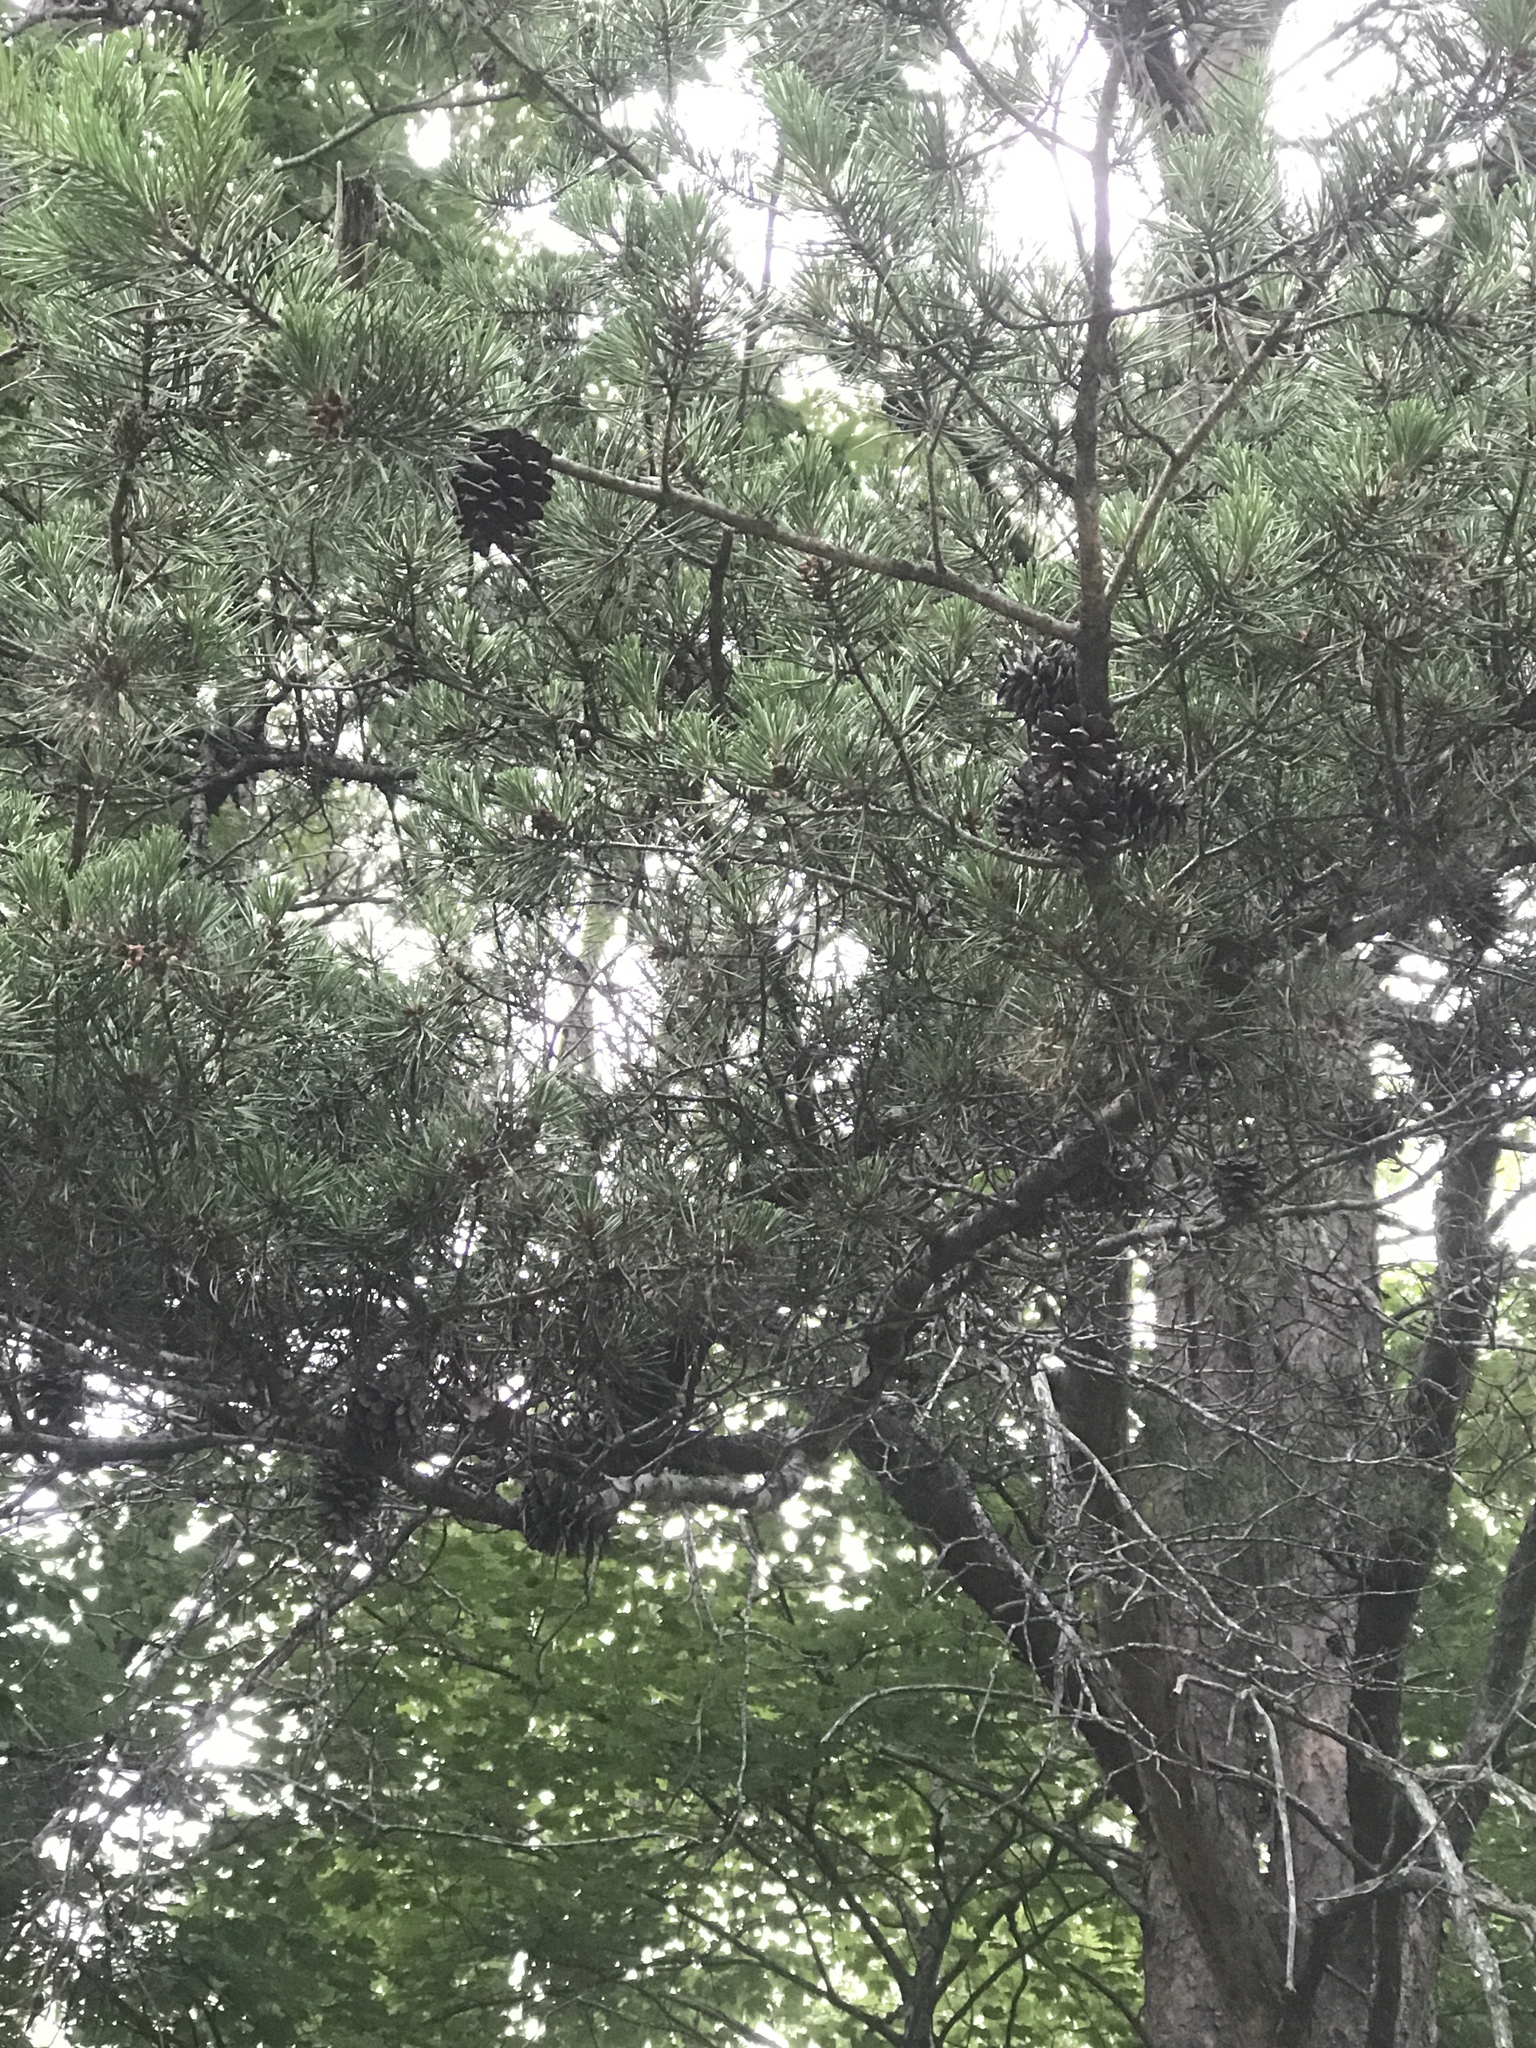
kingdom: Plantae
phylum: Tracheophyta
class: Pinopsida
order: Pinales
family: Pinaceae
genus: Pinus
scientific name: Pinus virginiana
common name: Scrub pine
